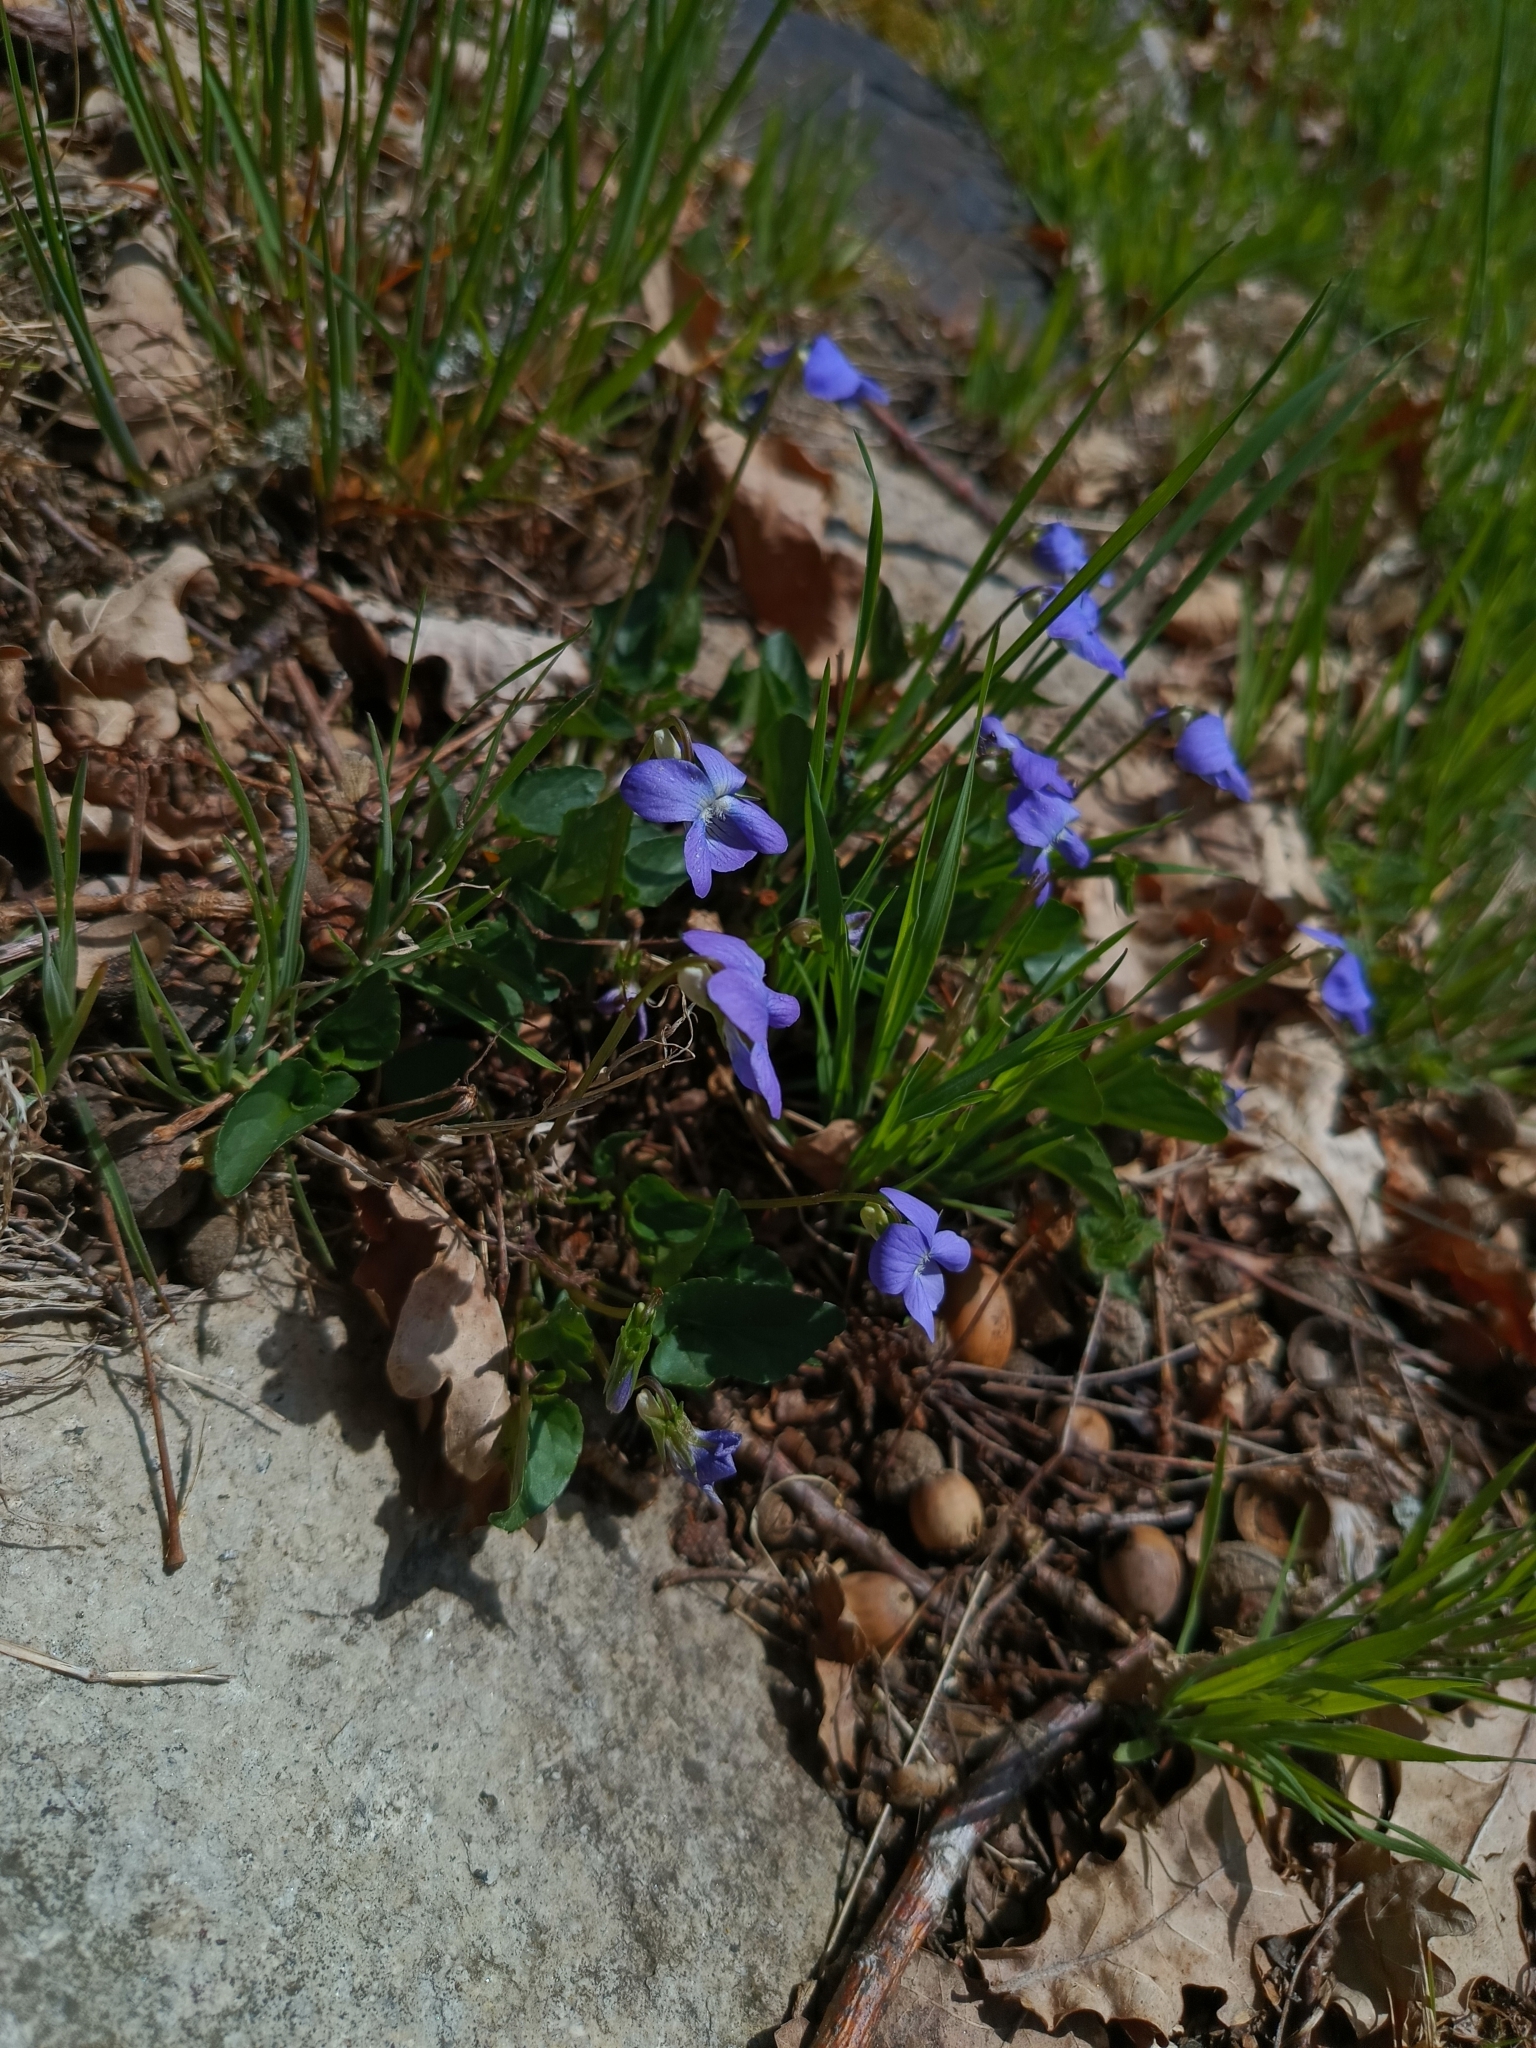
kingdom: Plantae
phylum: Tracheophyta
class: Magnoliopsida
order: Malpighiales
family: Violaceae
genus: Viola
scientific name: Viola canina
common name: Heath dog-violet
